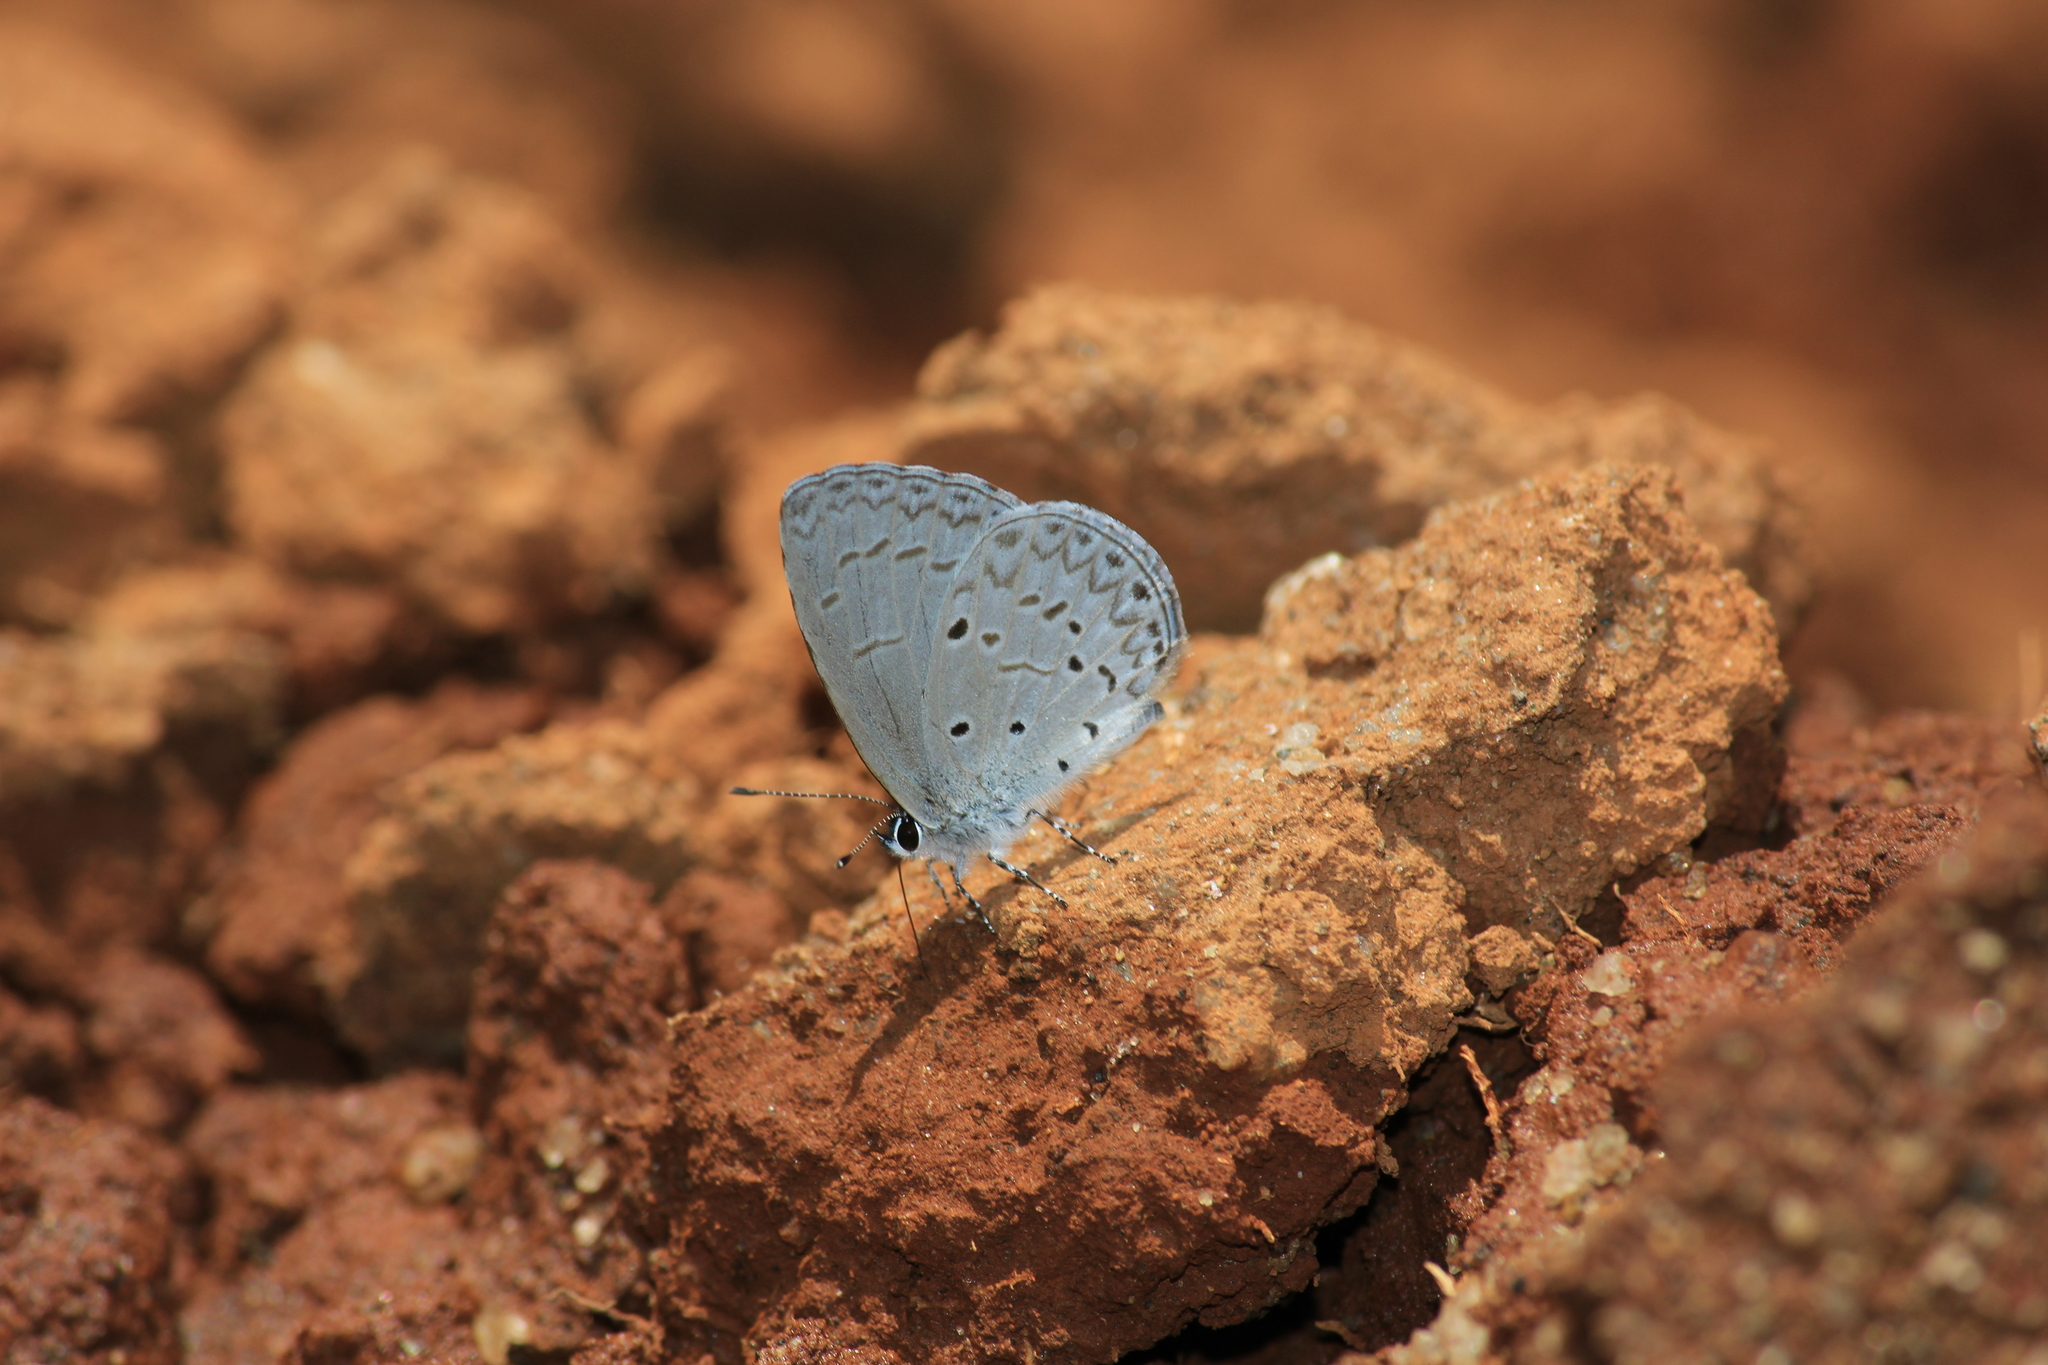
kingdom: Animalia
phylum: Arthropoda
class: Insecta
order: Lepidoptera
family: Lycaenidae
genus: Acytolepis
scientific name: Acytolepis puspa
